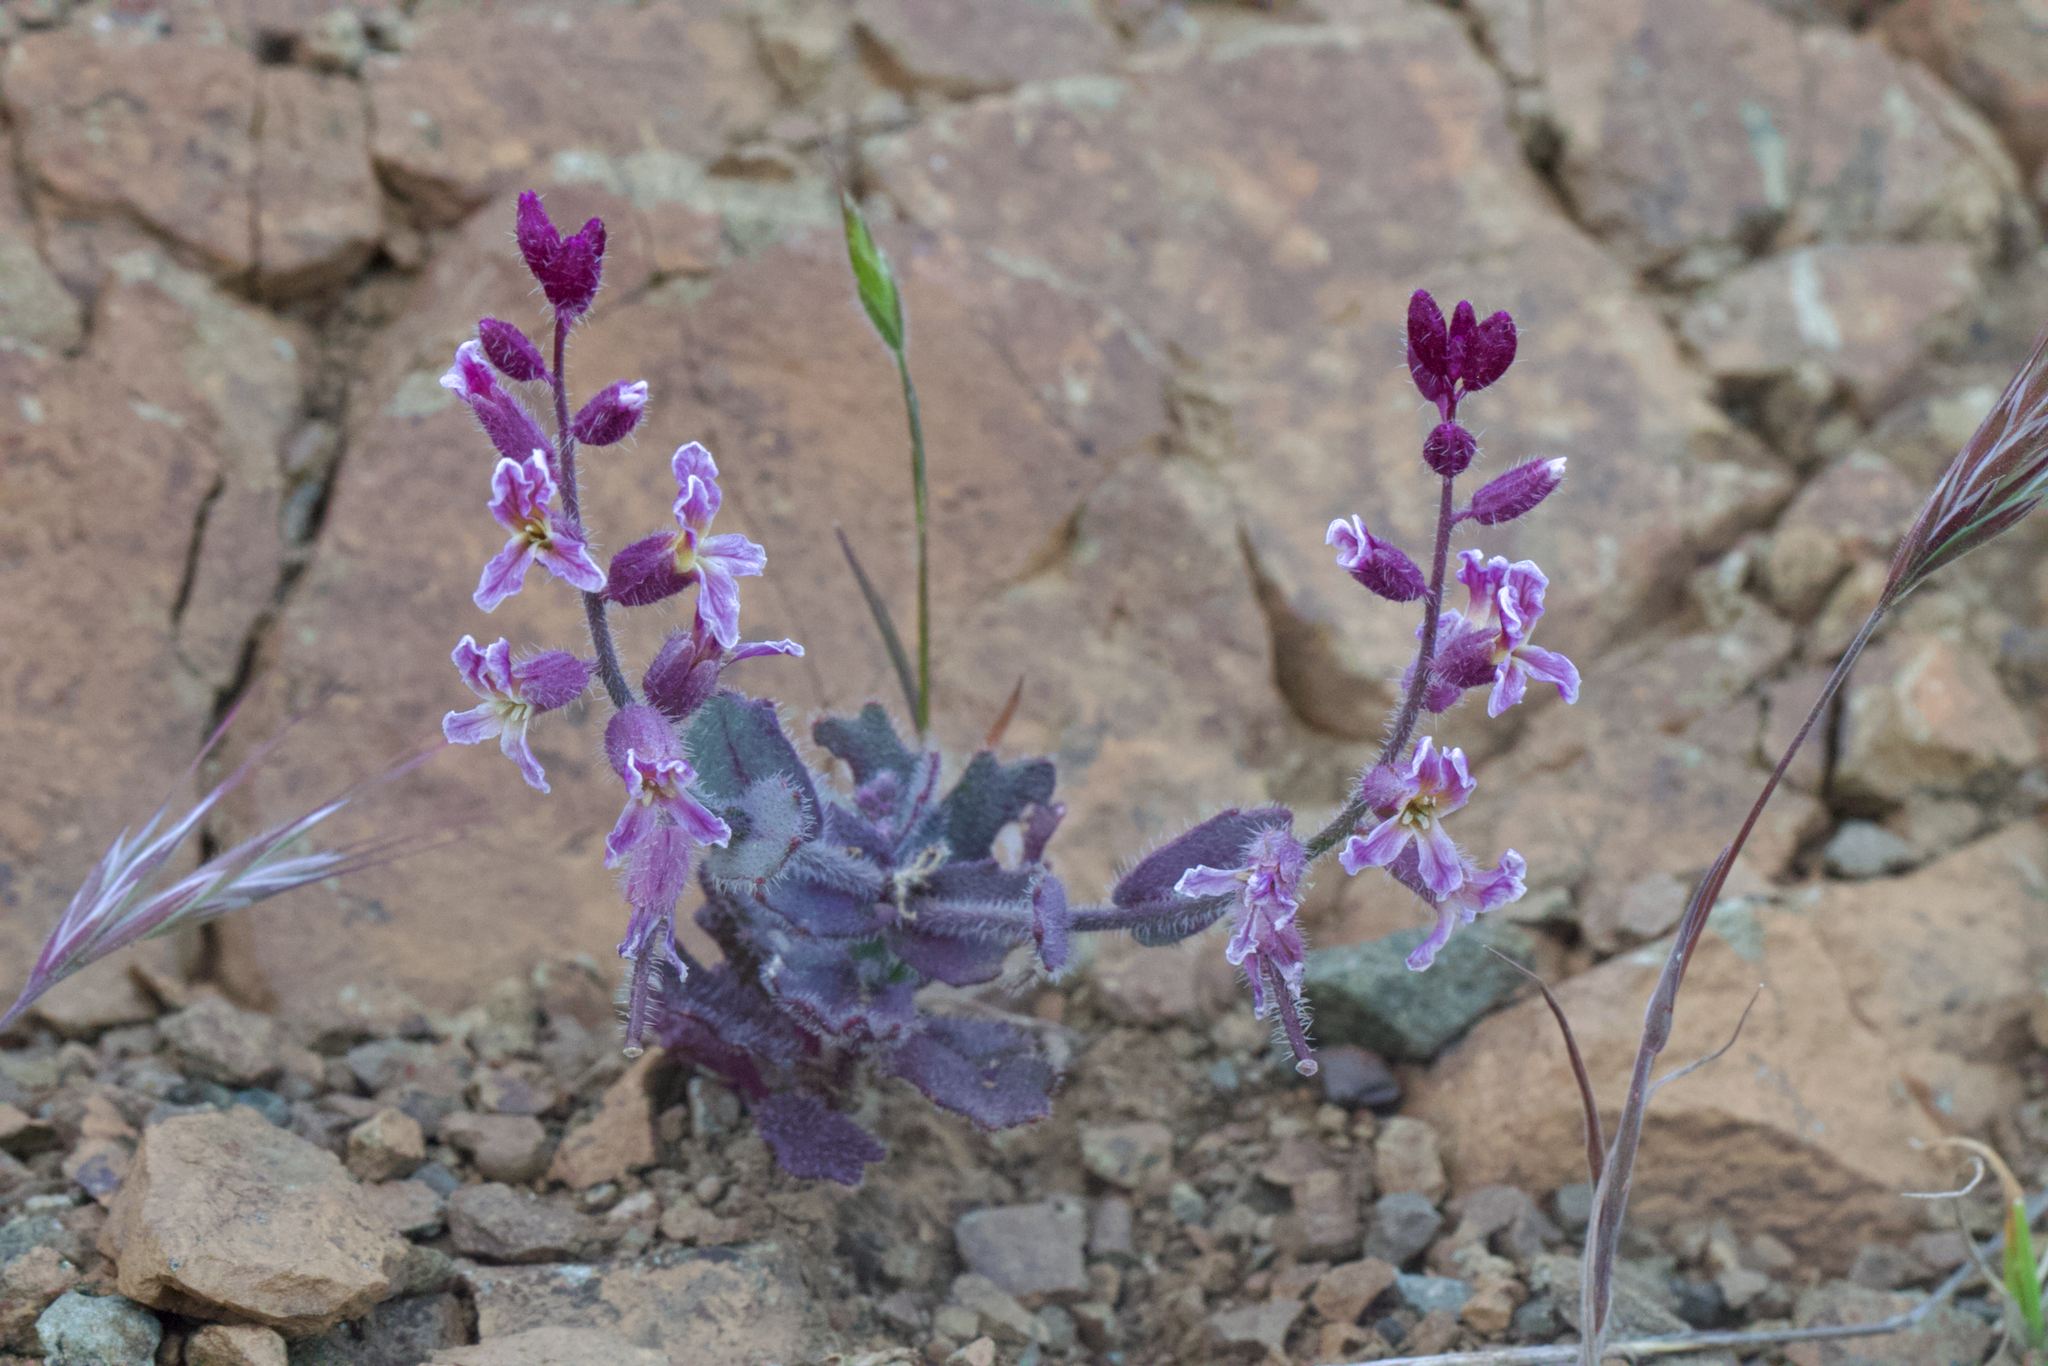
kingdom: Plantae
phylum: Tracheophyta
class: Magnoliopsida
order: Brassicales
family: Brassicaceae
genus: Streptanthus
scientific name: Streptanthus hispidus
